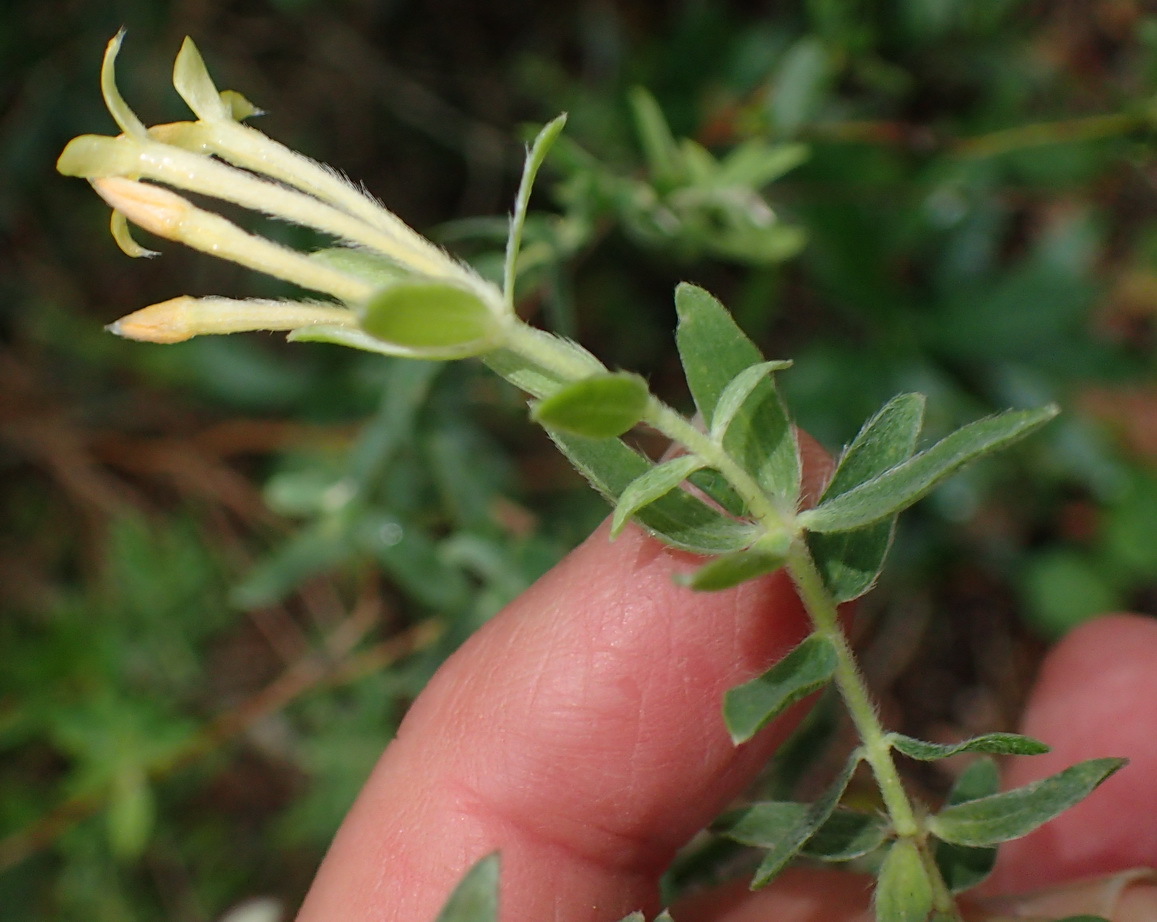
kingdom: Plantae
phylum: Tracheophyta
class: Magnoliopsida
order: Malvales
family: Thymelaeaceae
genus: Gnidia
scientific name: Gnidia sericea
